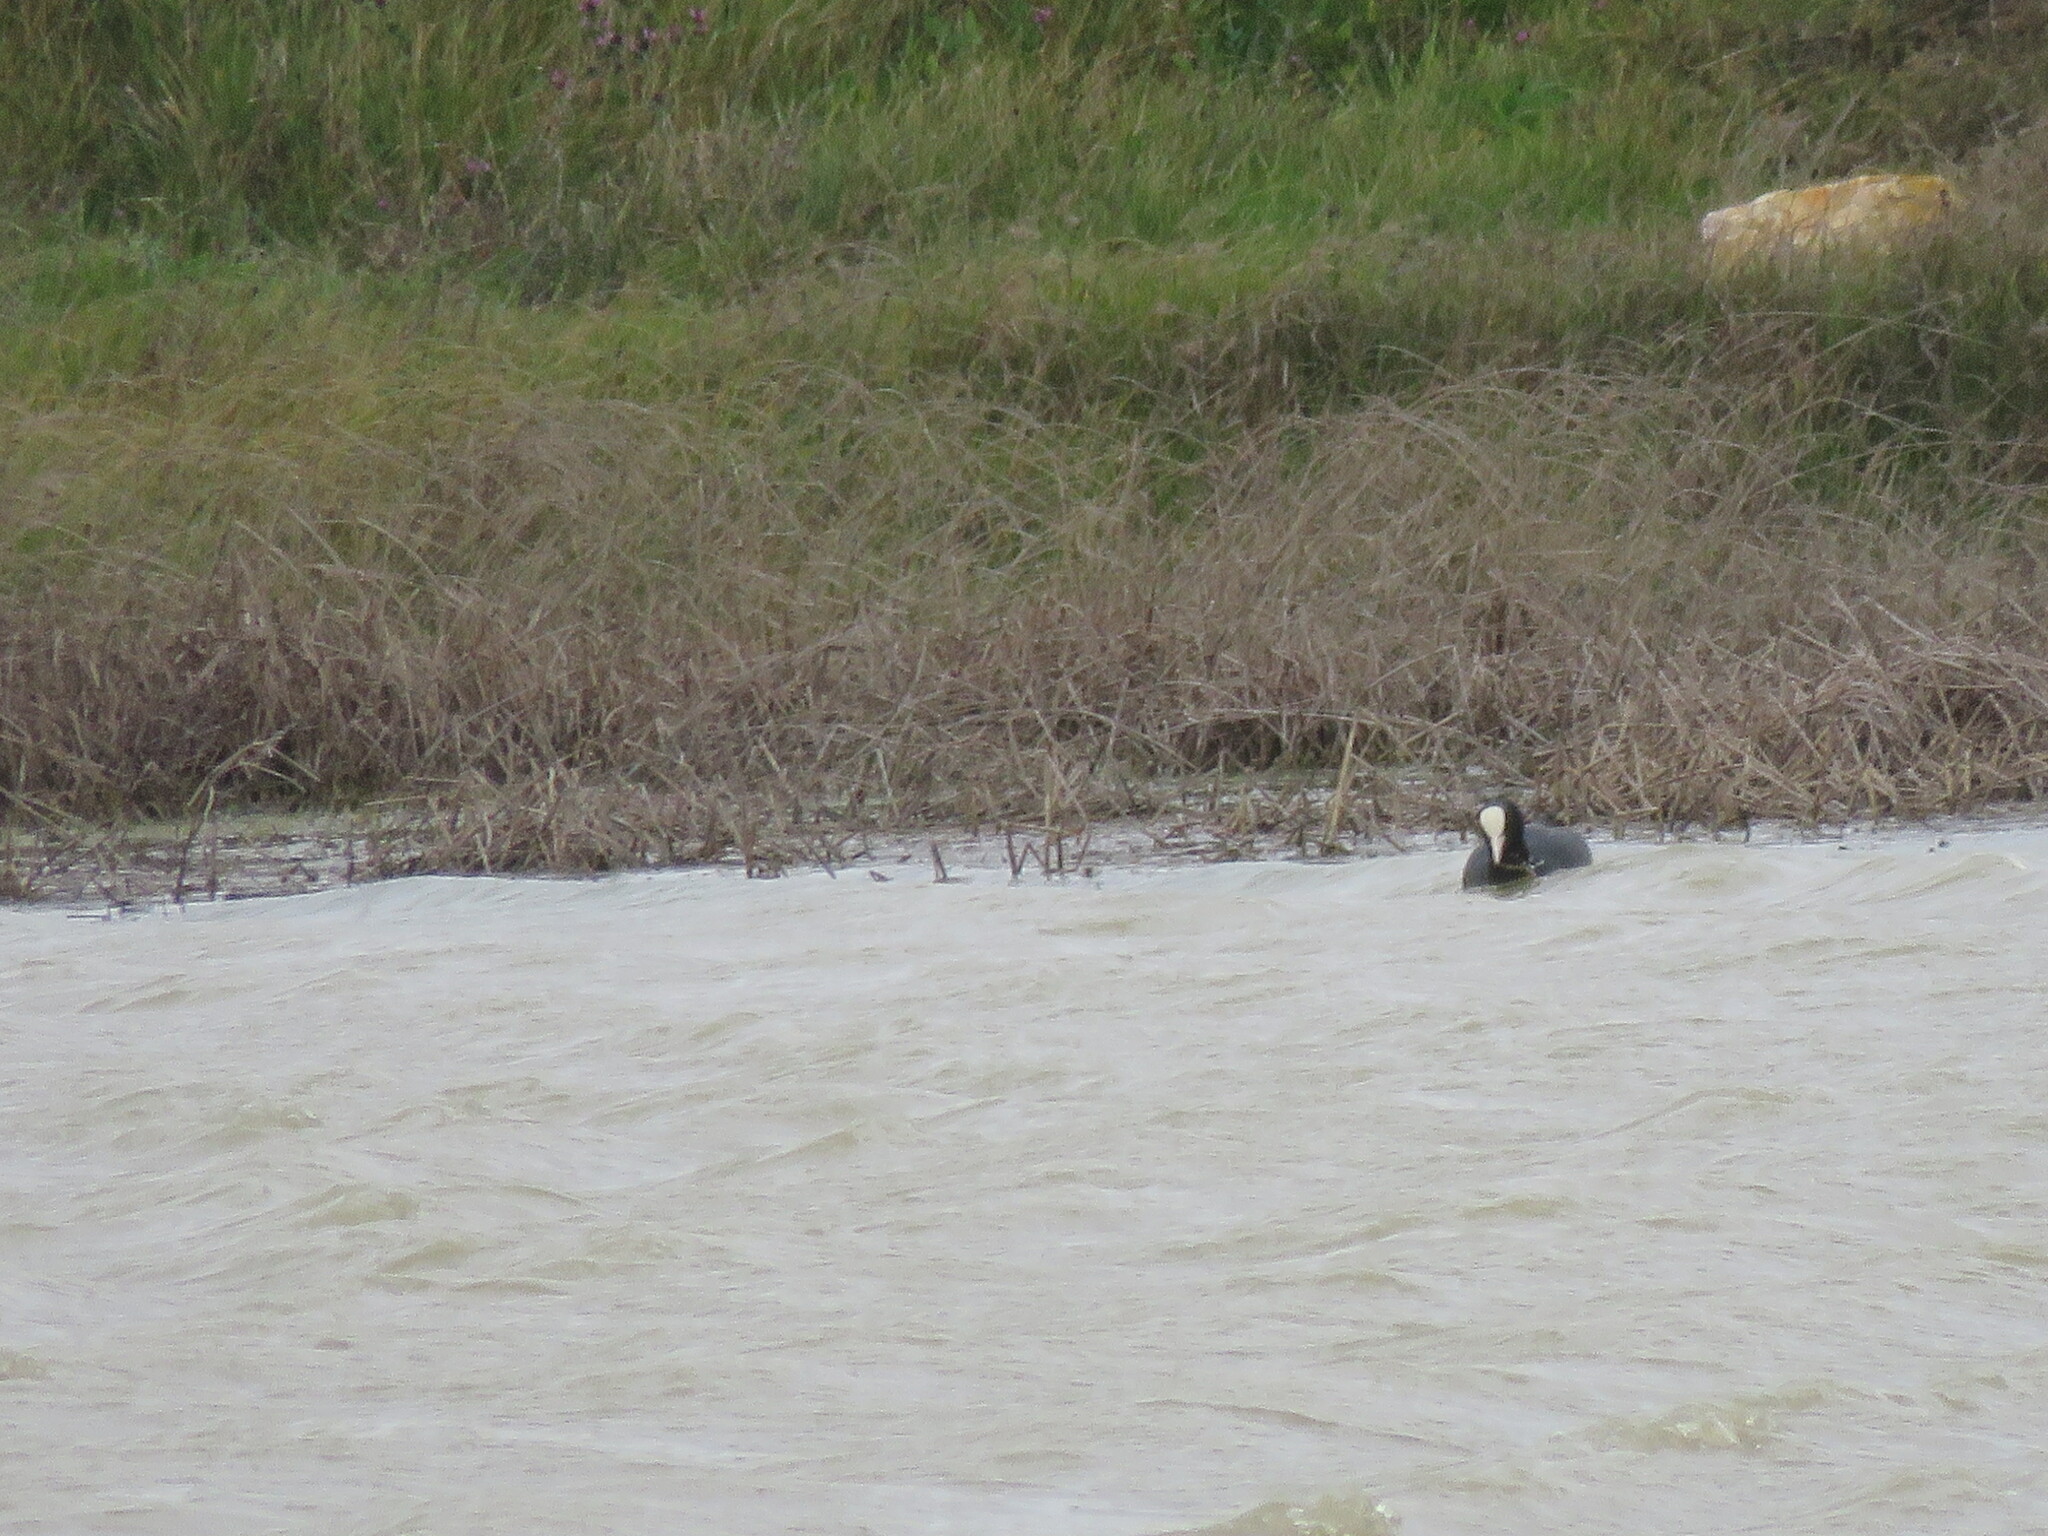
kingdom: Animalia
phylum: Chordata
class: Aves
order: Gruiformes
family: Rallidae
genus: Fulica
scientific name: Fulica atra
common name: Eurasian coot
